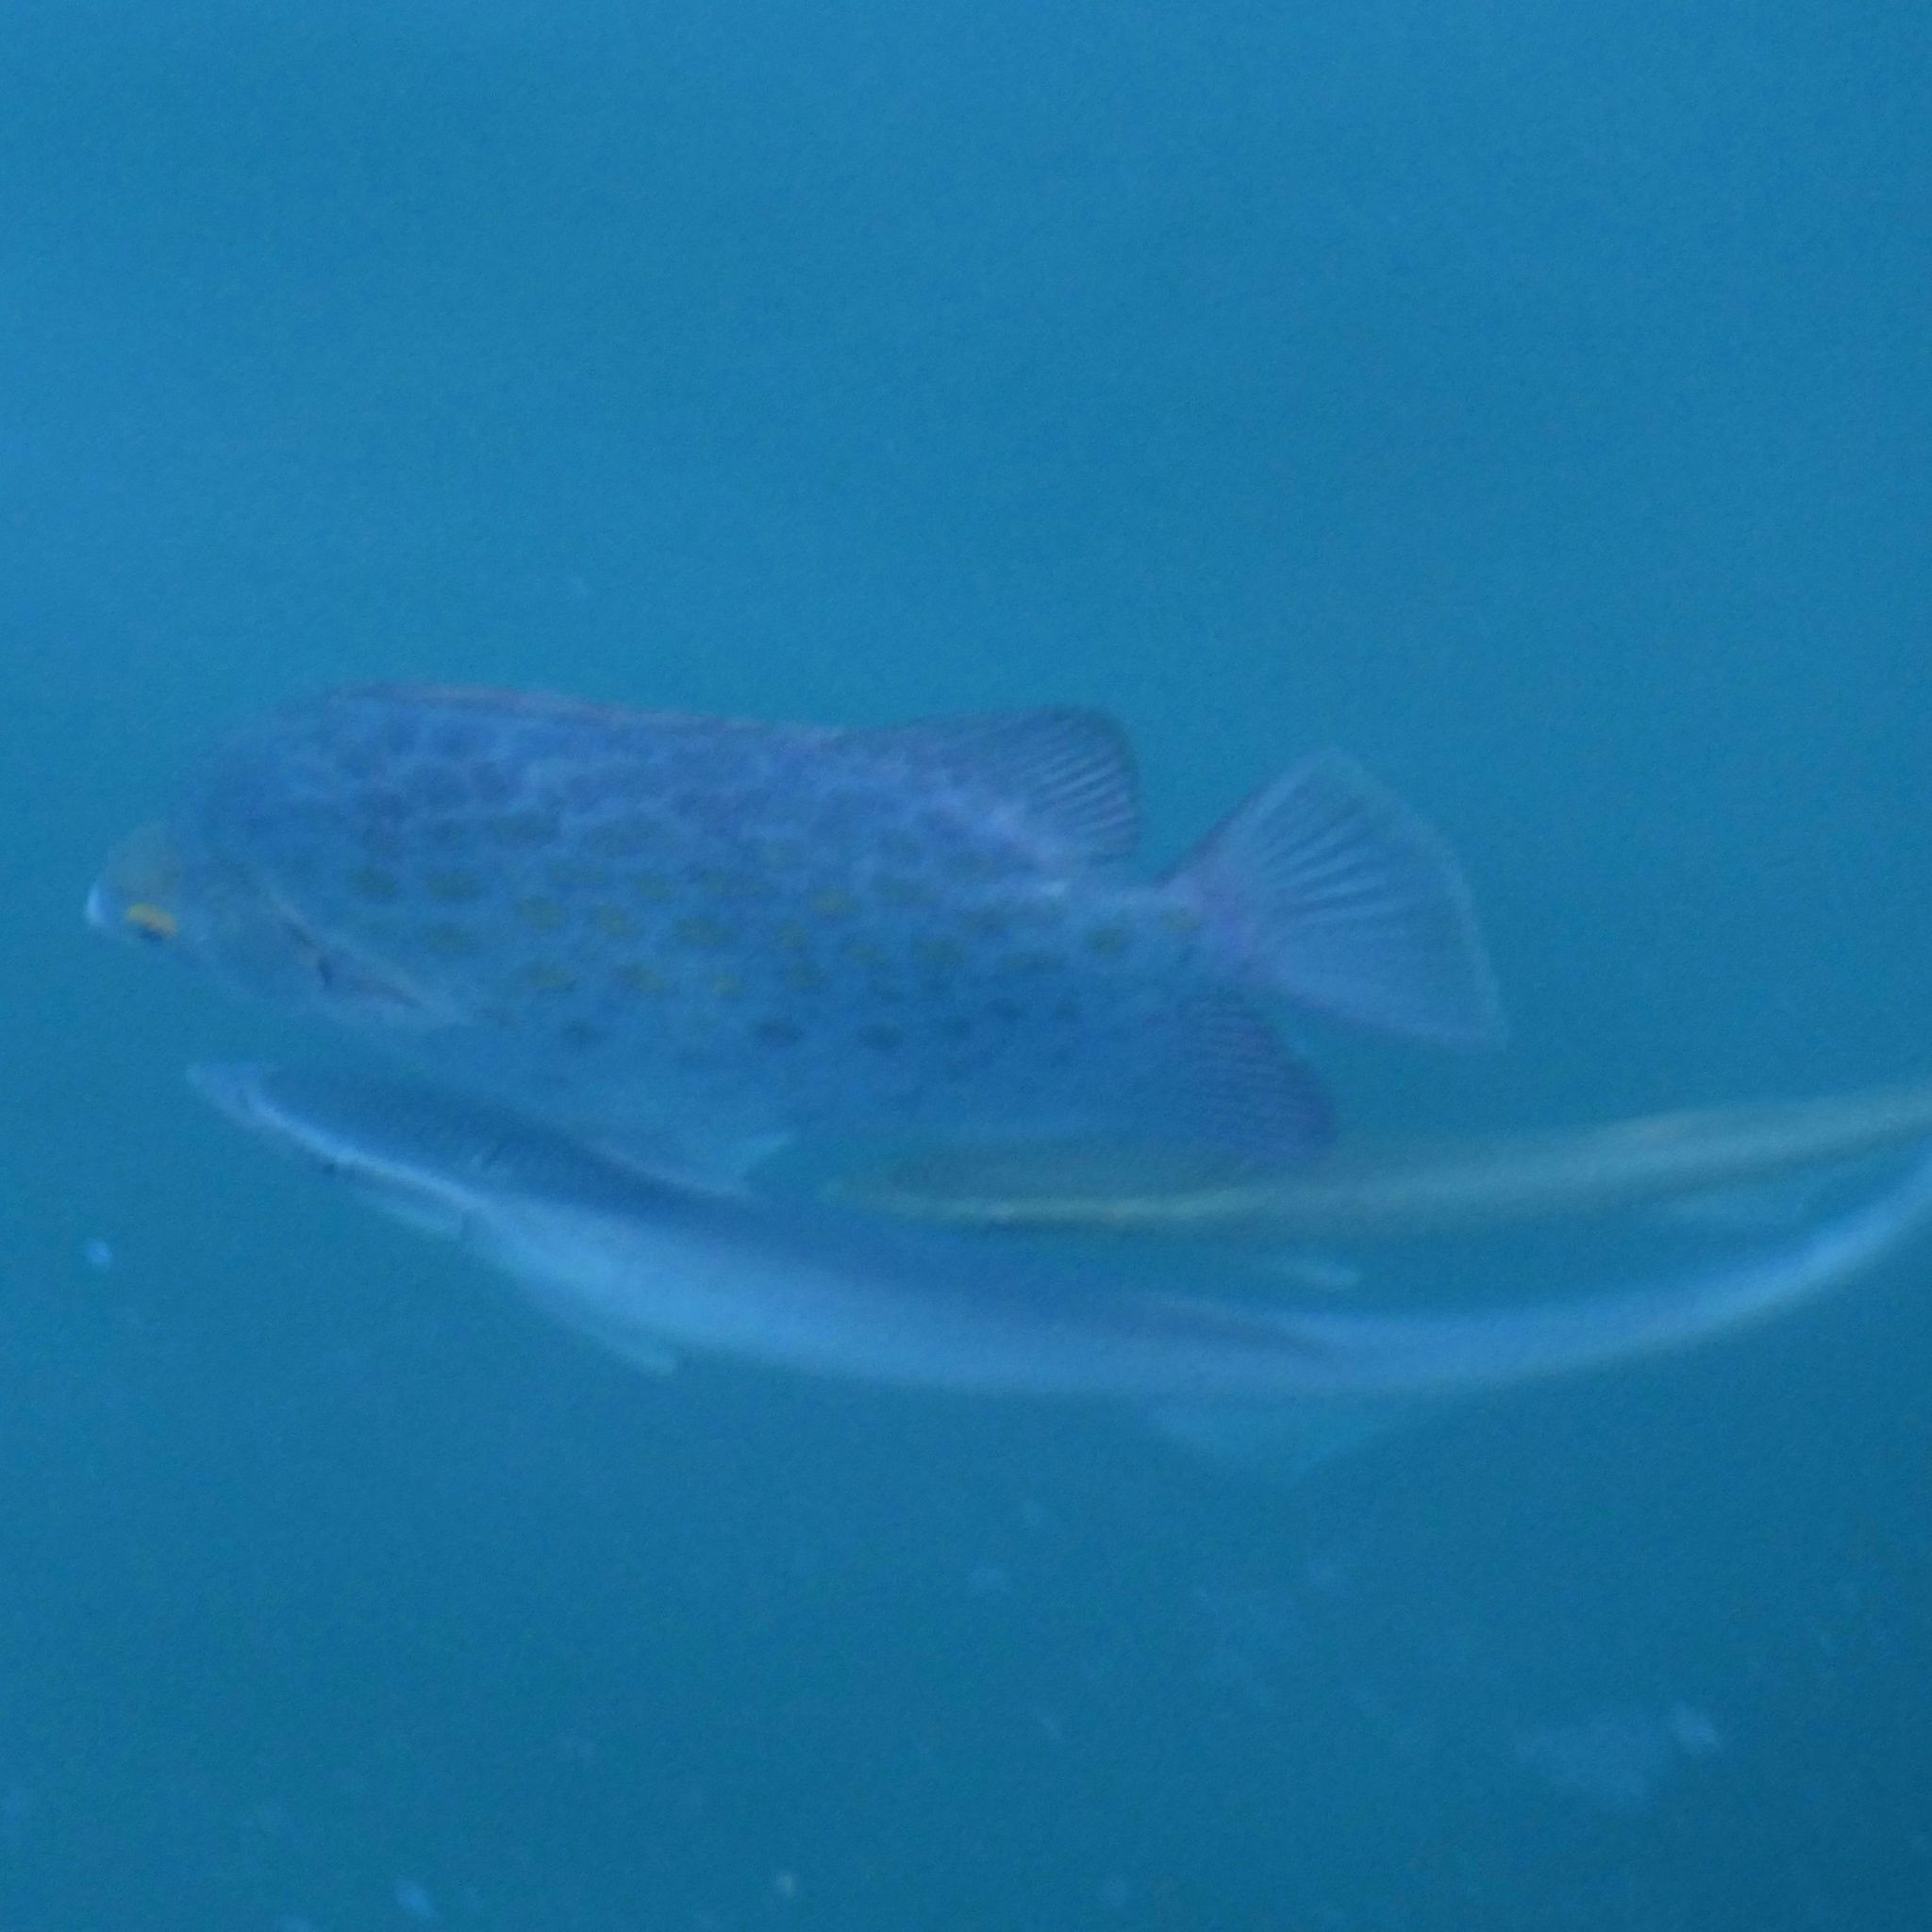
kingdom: Animalia
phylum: Chordata
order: Perciformes
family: Echeneidae
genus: Echeneis
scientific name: Echeneis naucrates
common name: Sharksucker
